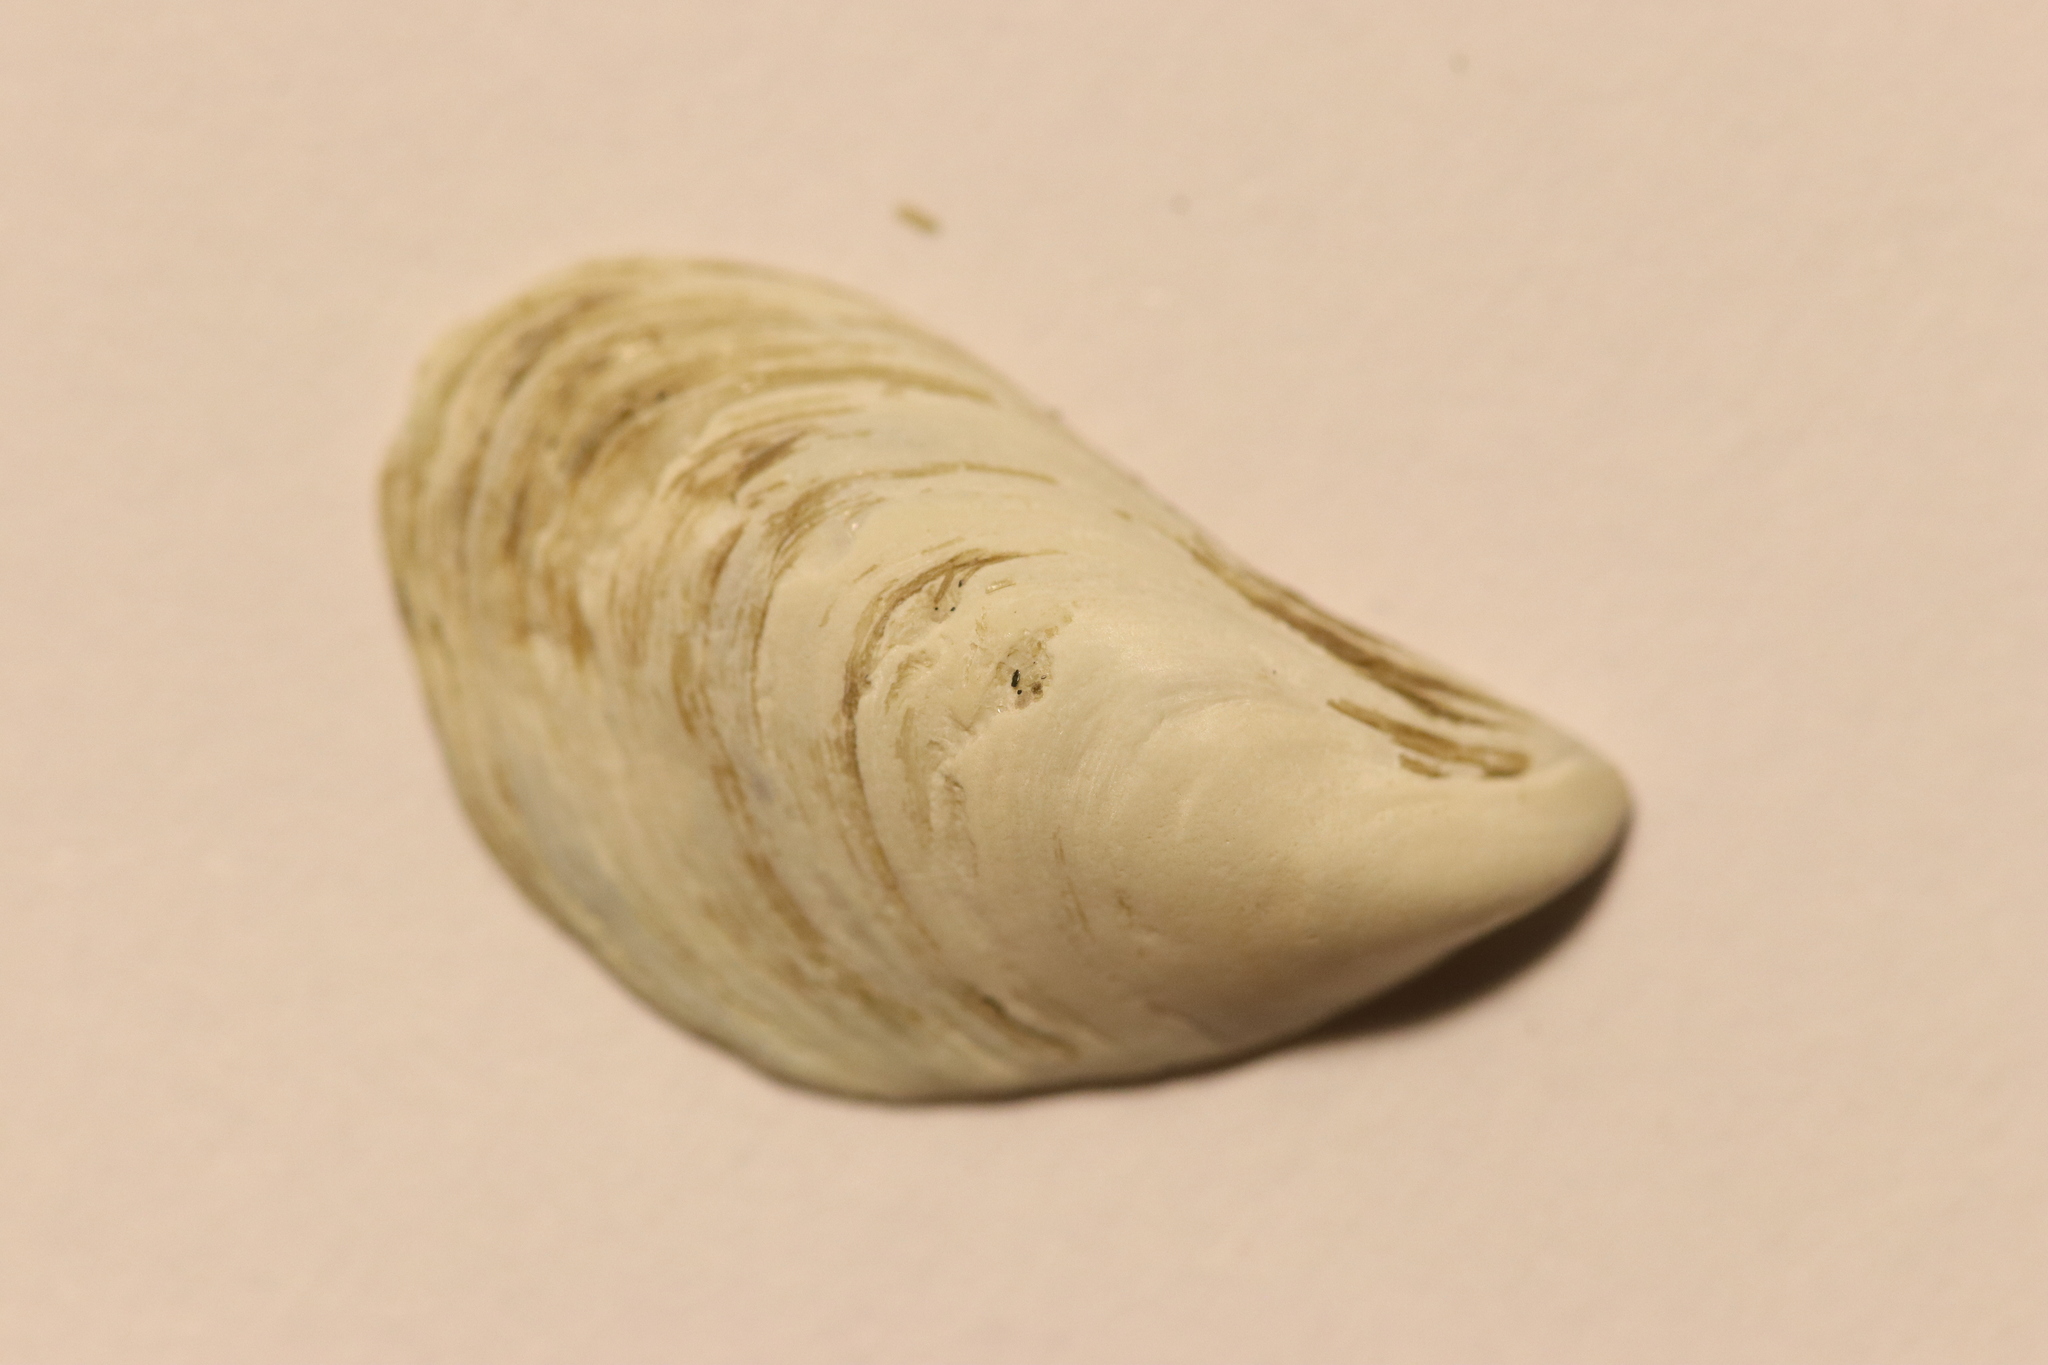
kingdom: Animalia
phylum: Mollusca
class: Bivalvia
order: Myida
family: Dreissenidae
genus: Dreissena
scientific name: Dreissena bugensis
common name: Quagga mussel
